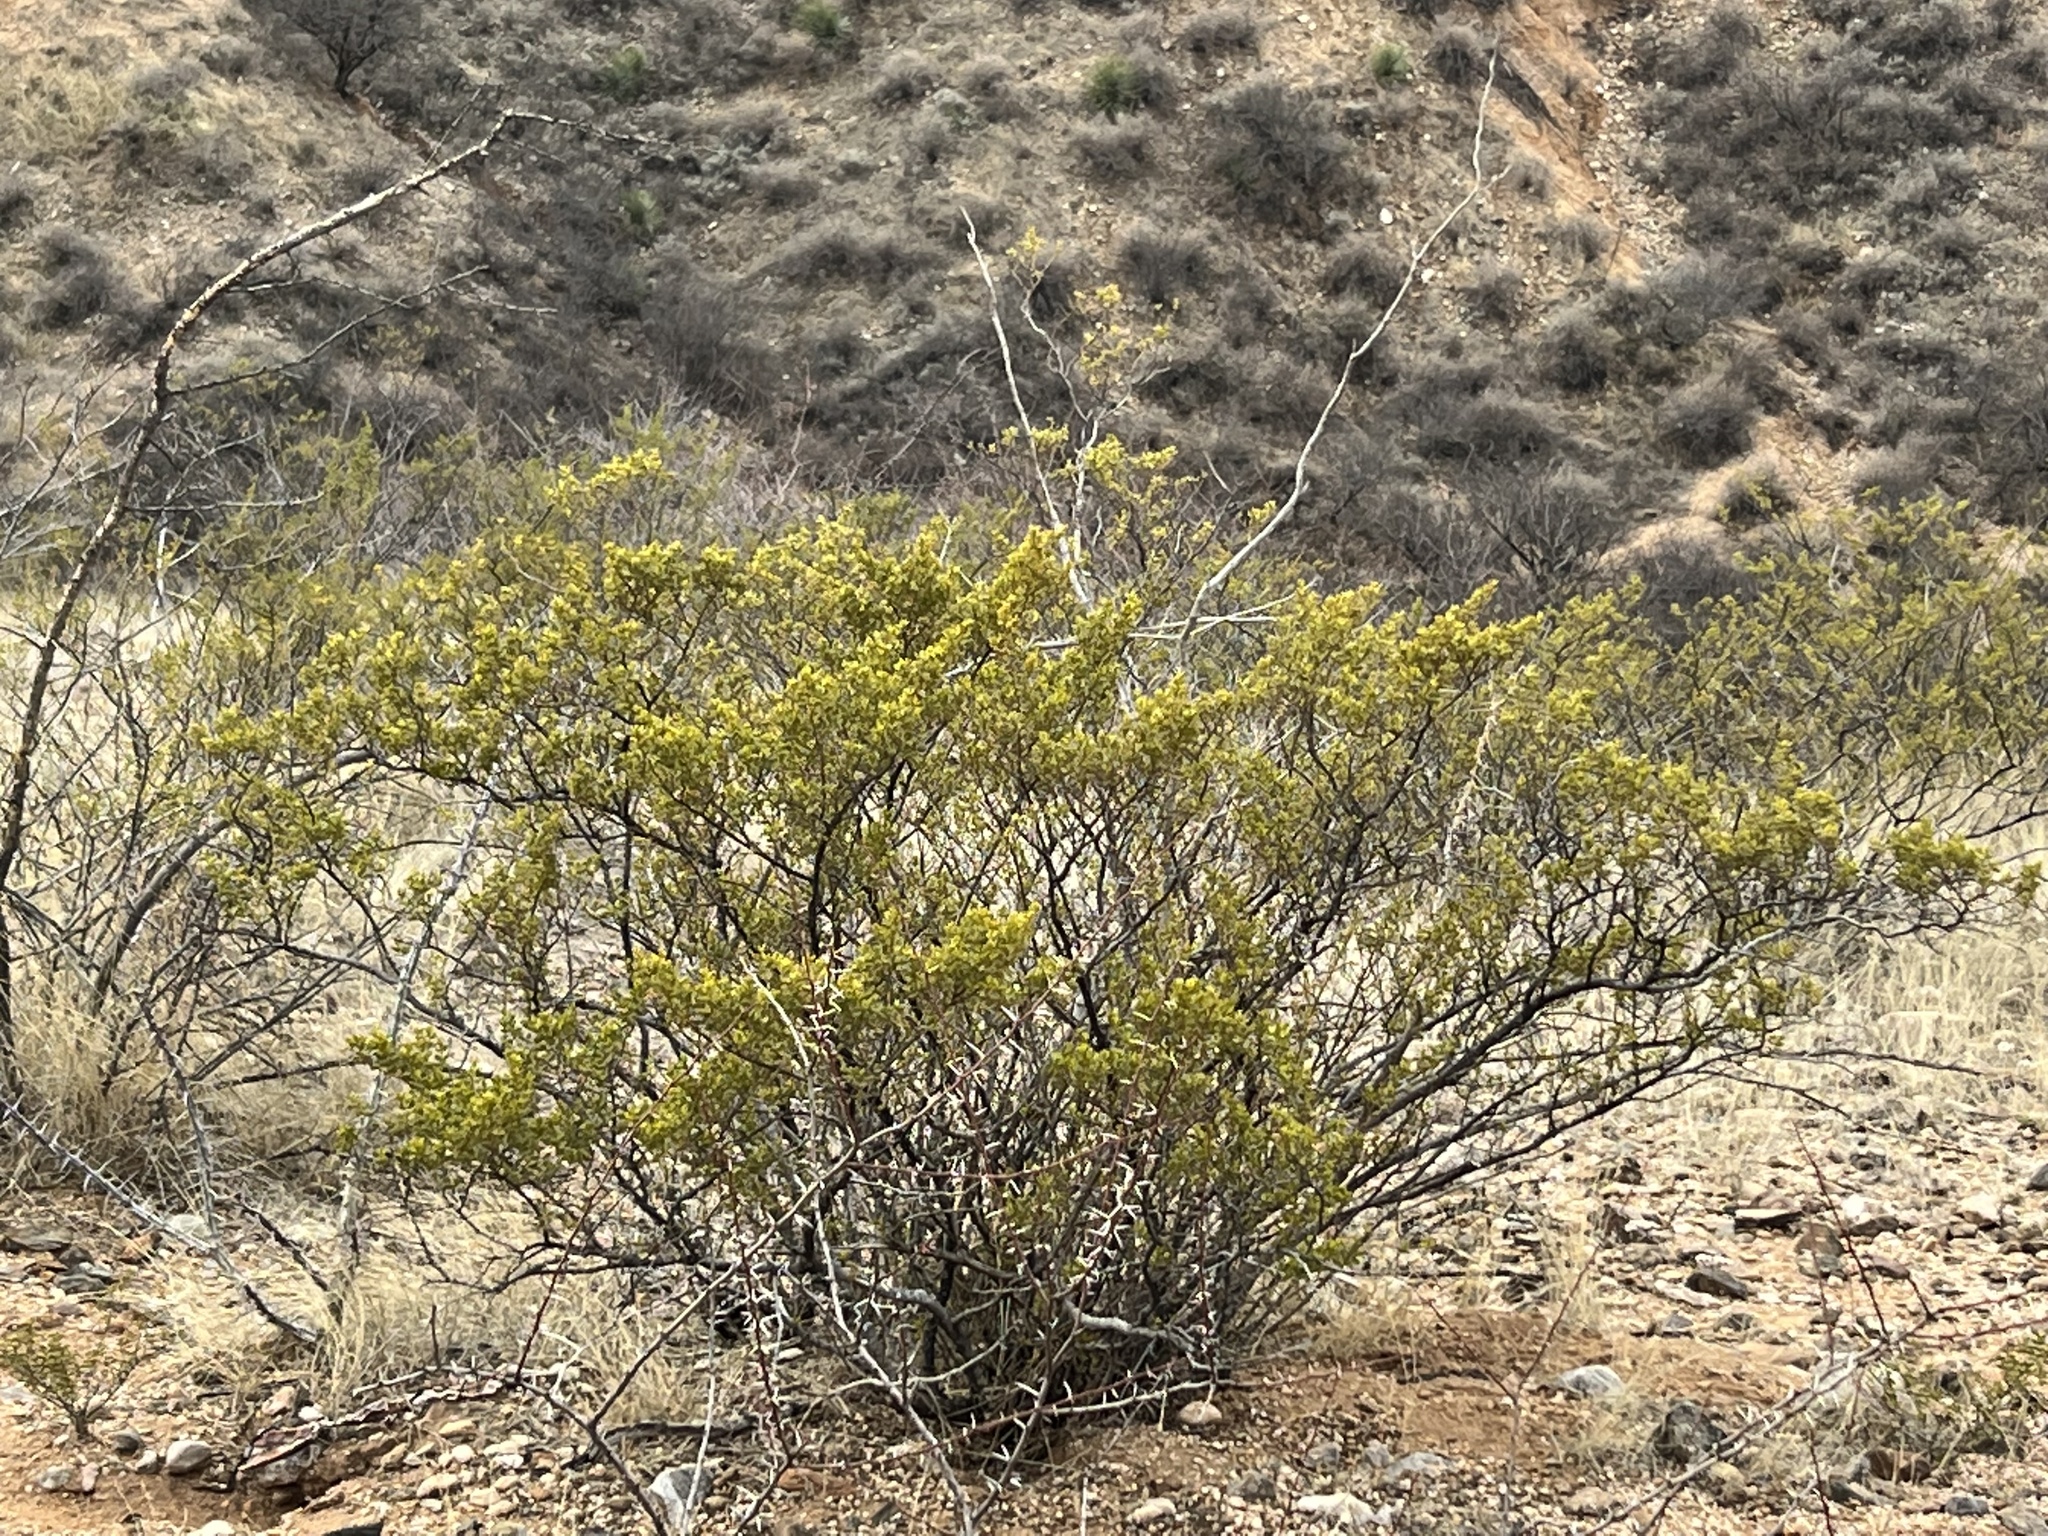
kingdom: Plantae
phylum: Tracheophyta
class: Magnoliopsida
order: Zygophyllales
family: Zygophyllaceae
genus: Larrea
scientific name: Larrea tridentata
